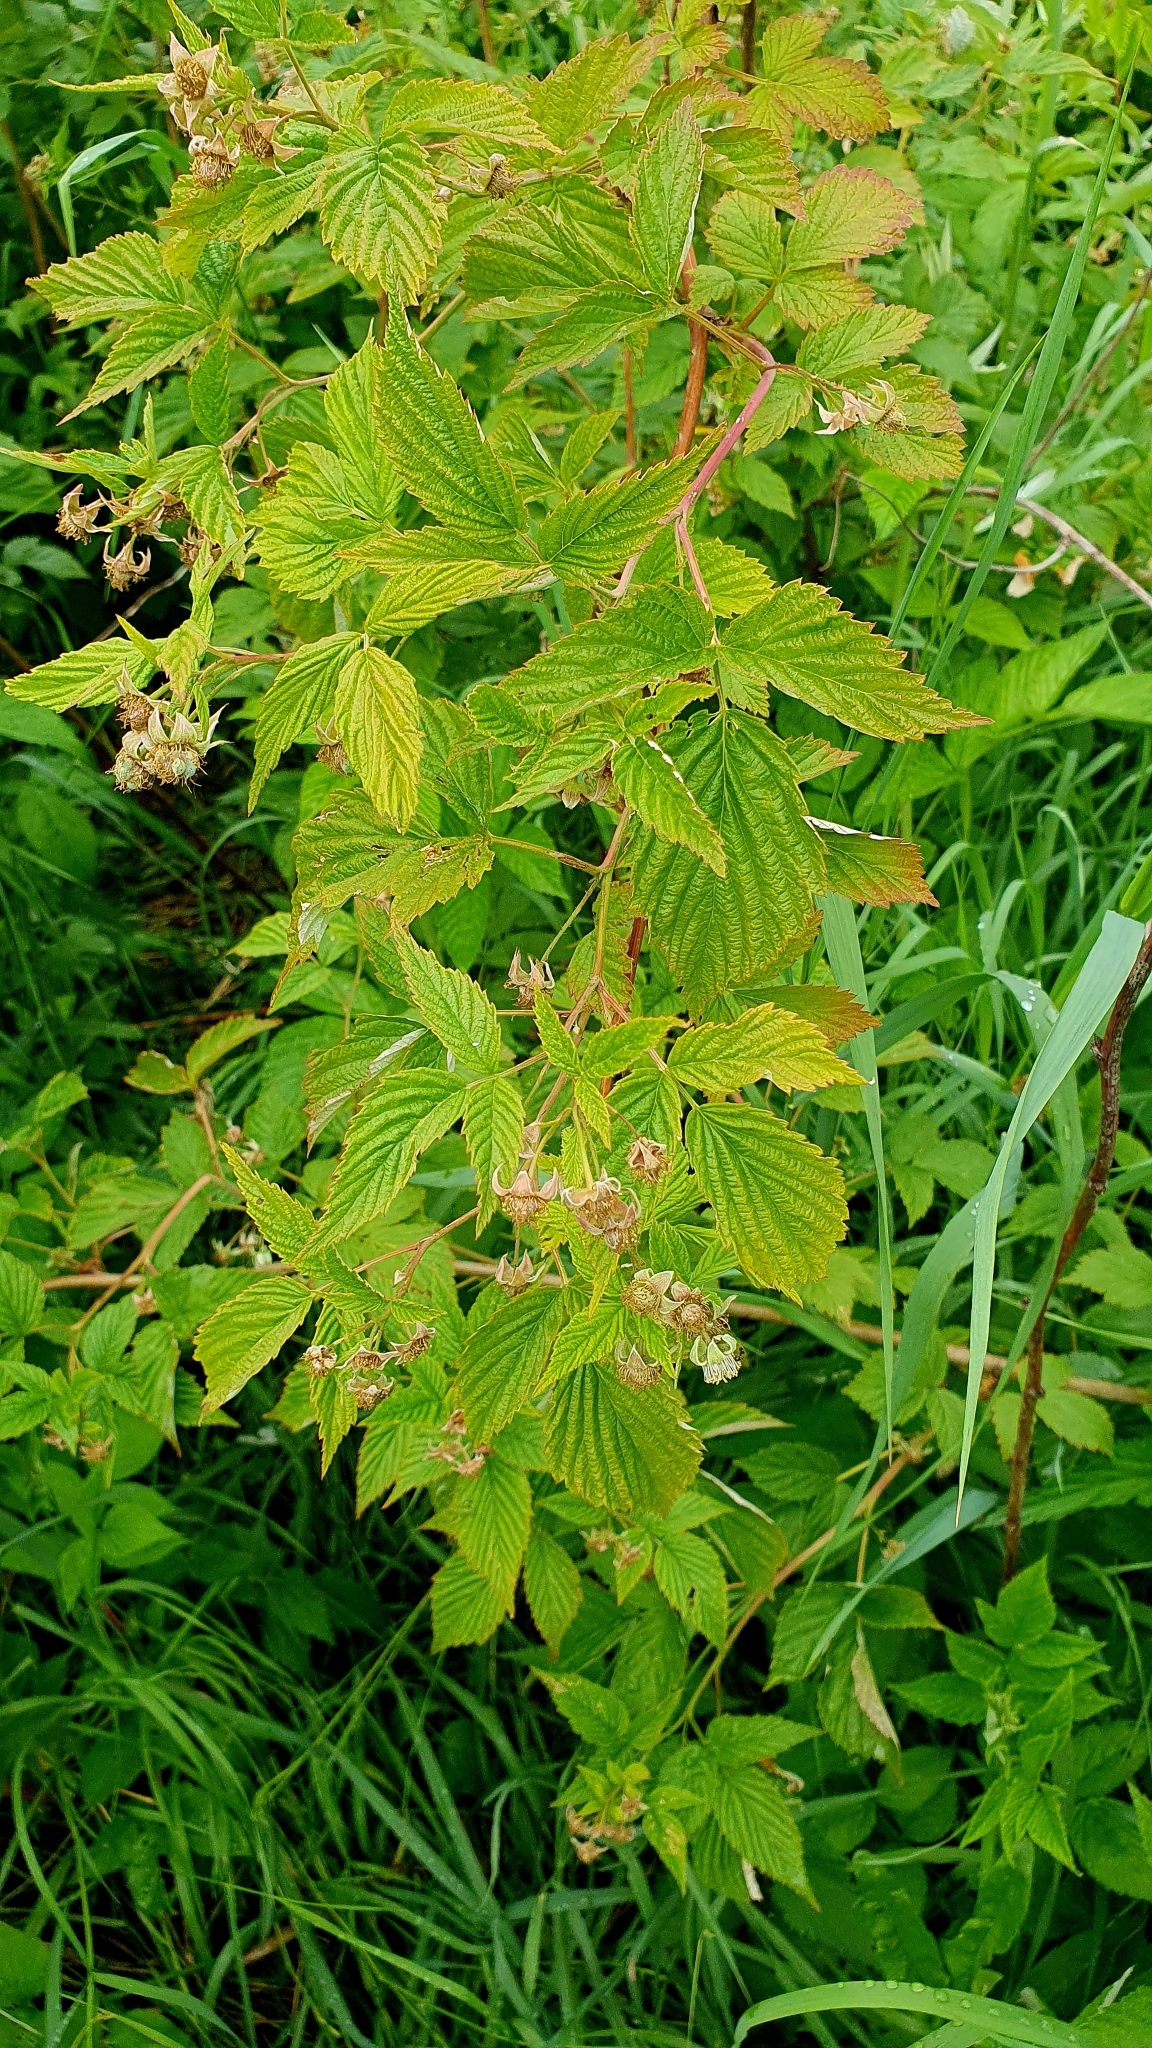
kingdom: Plantae
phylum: Tracheophyta
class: Magnoliopsida
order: Rosales
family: Rosaceae
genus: Rubus
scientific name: Rubus idaeus
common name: Raspberry
